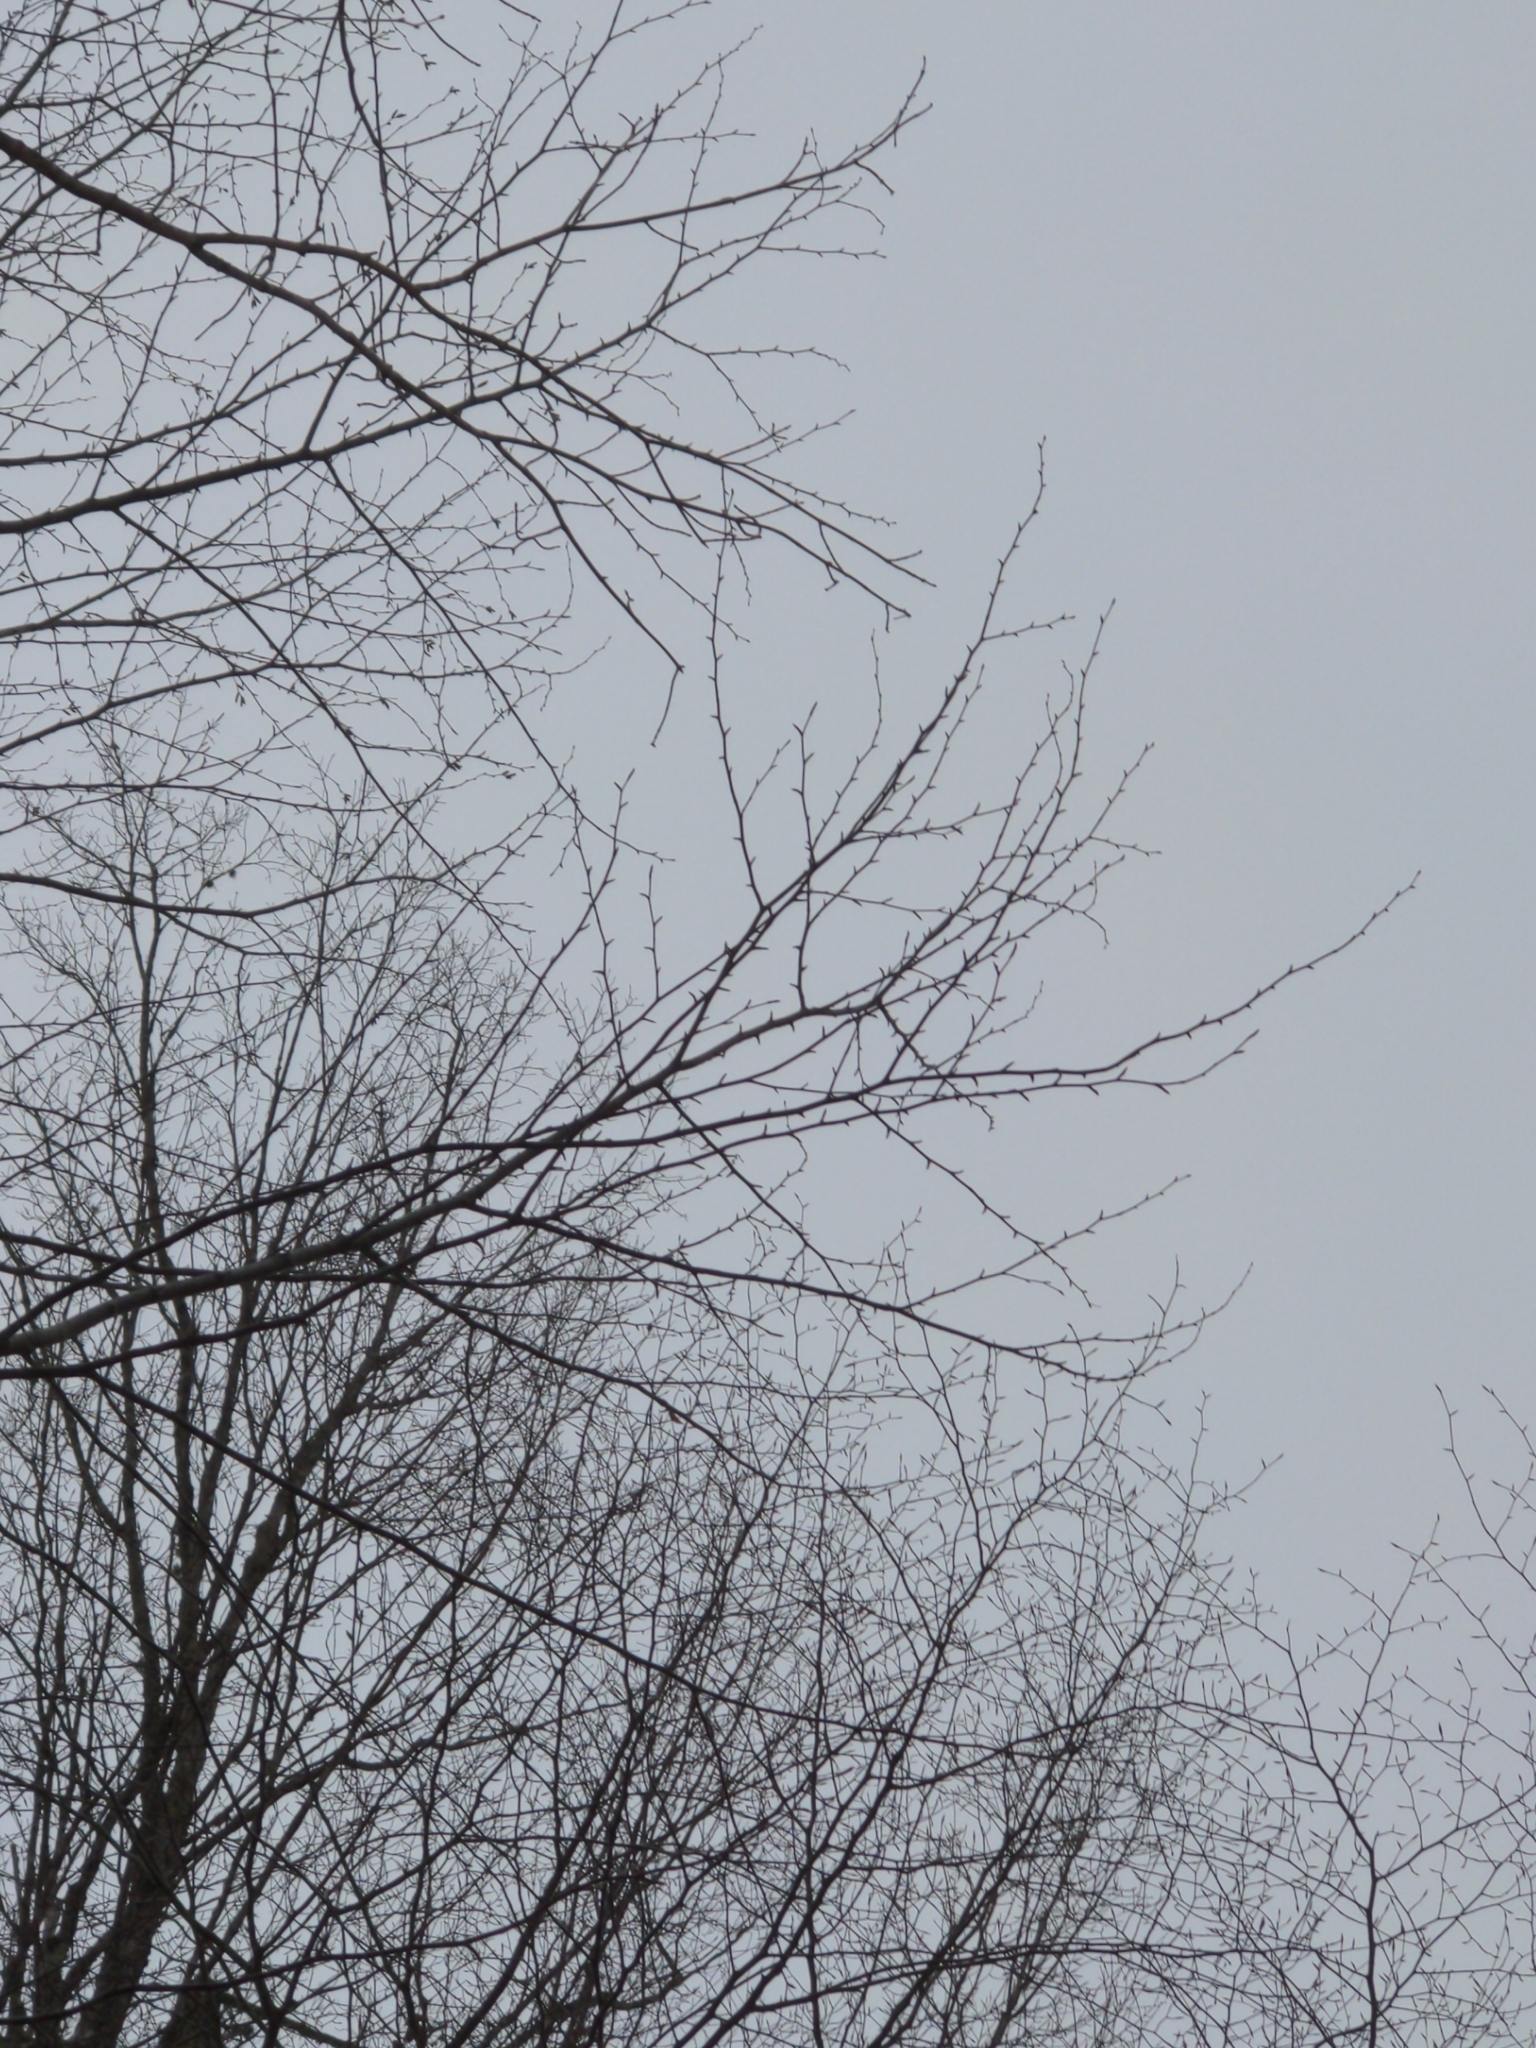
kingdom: Plantae
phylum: Tracheophyta
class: Magnoliopsida
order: Fagales
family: Betulaceae
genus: Betula
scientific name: Betula alleghaniensis
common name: Yellow birch
